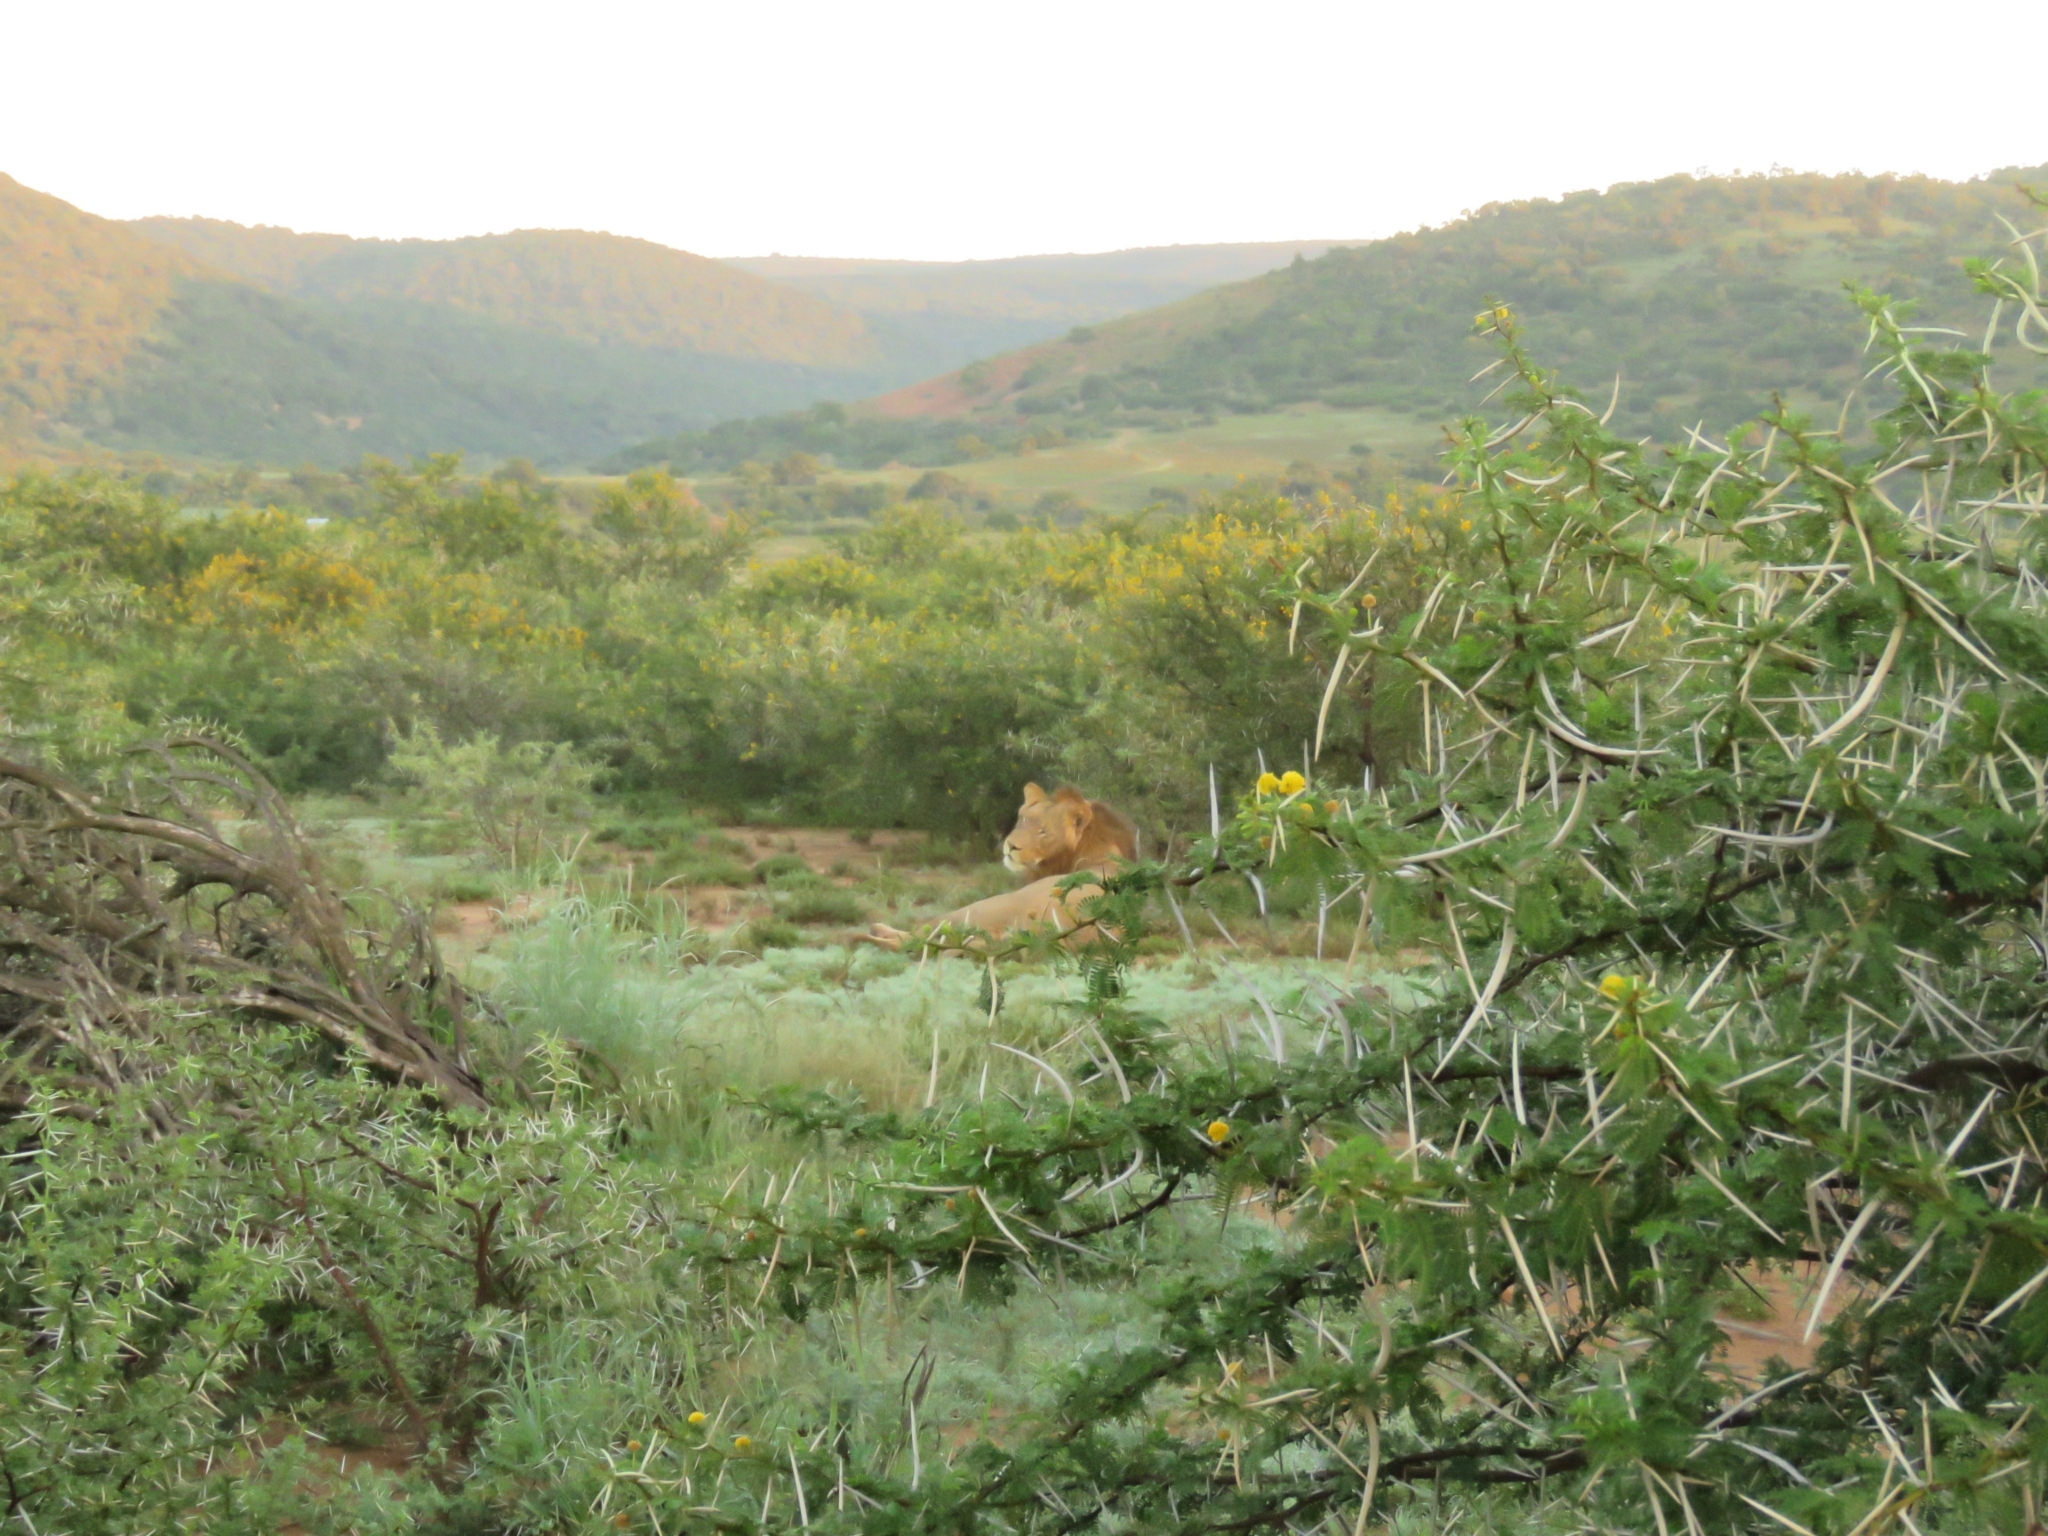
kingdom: Animalia
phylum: Chordata
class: Mammalia
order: Carnivora
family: Felidae
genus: Panthera
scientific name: Panthera leo
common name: Lion
